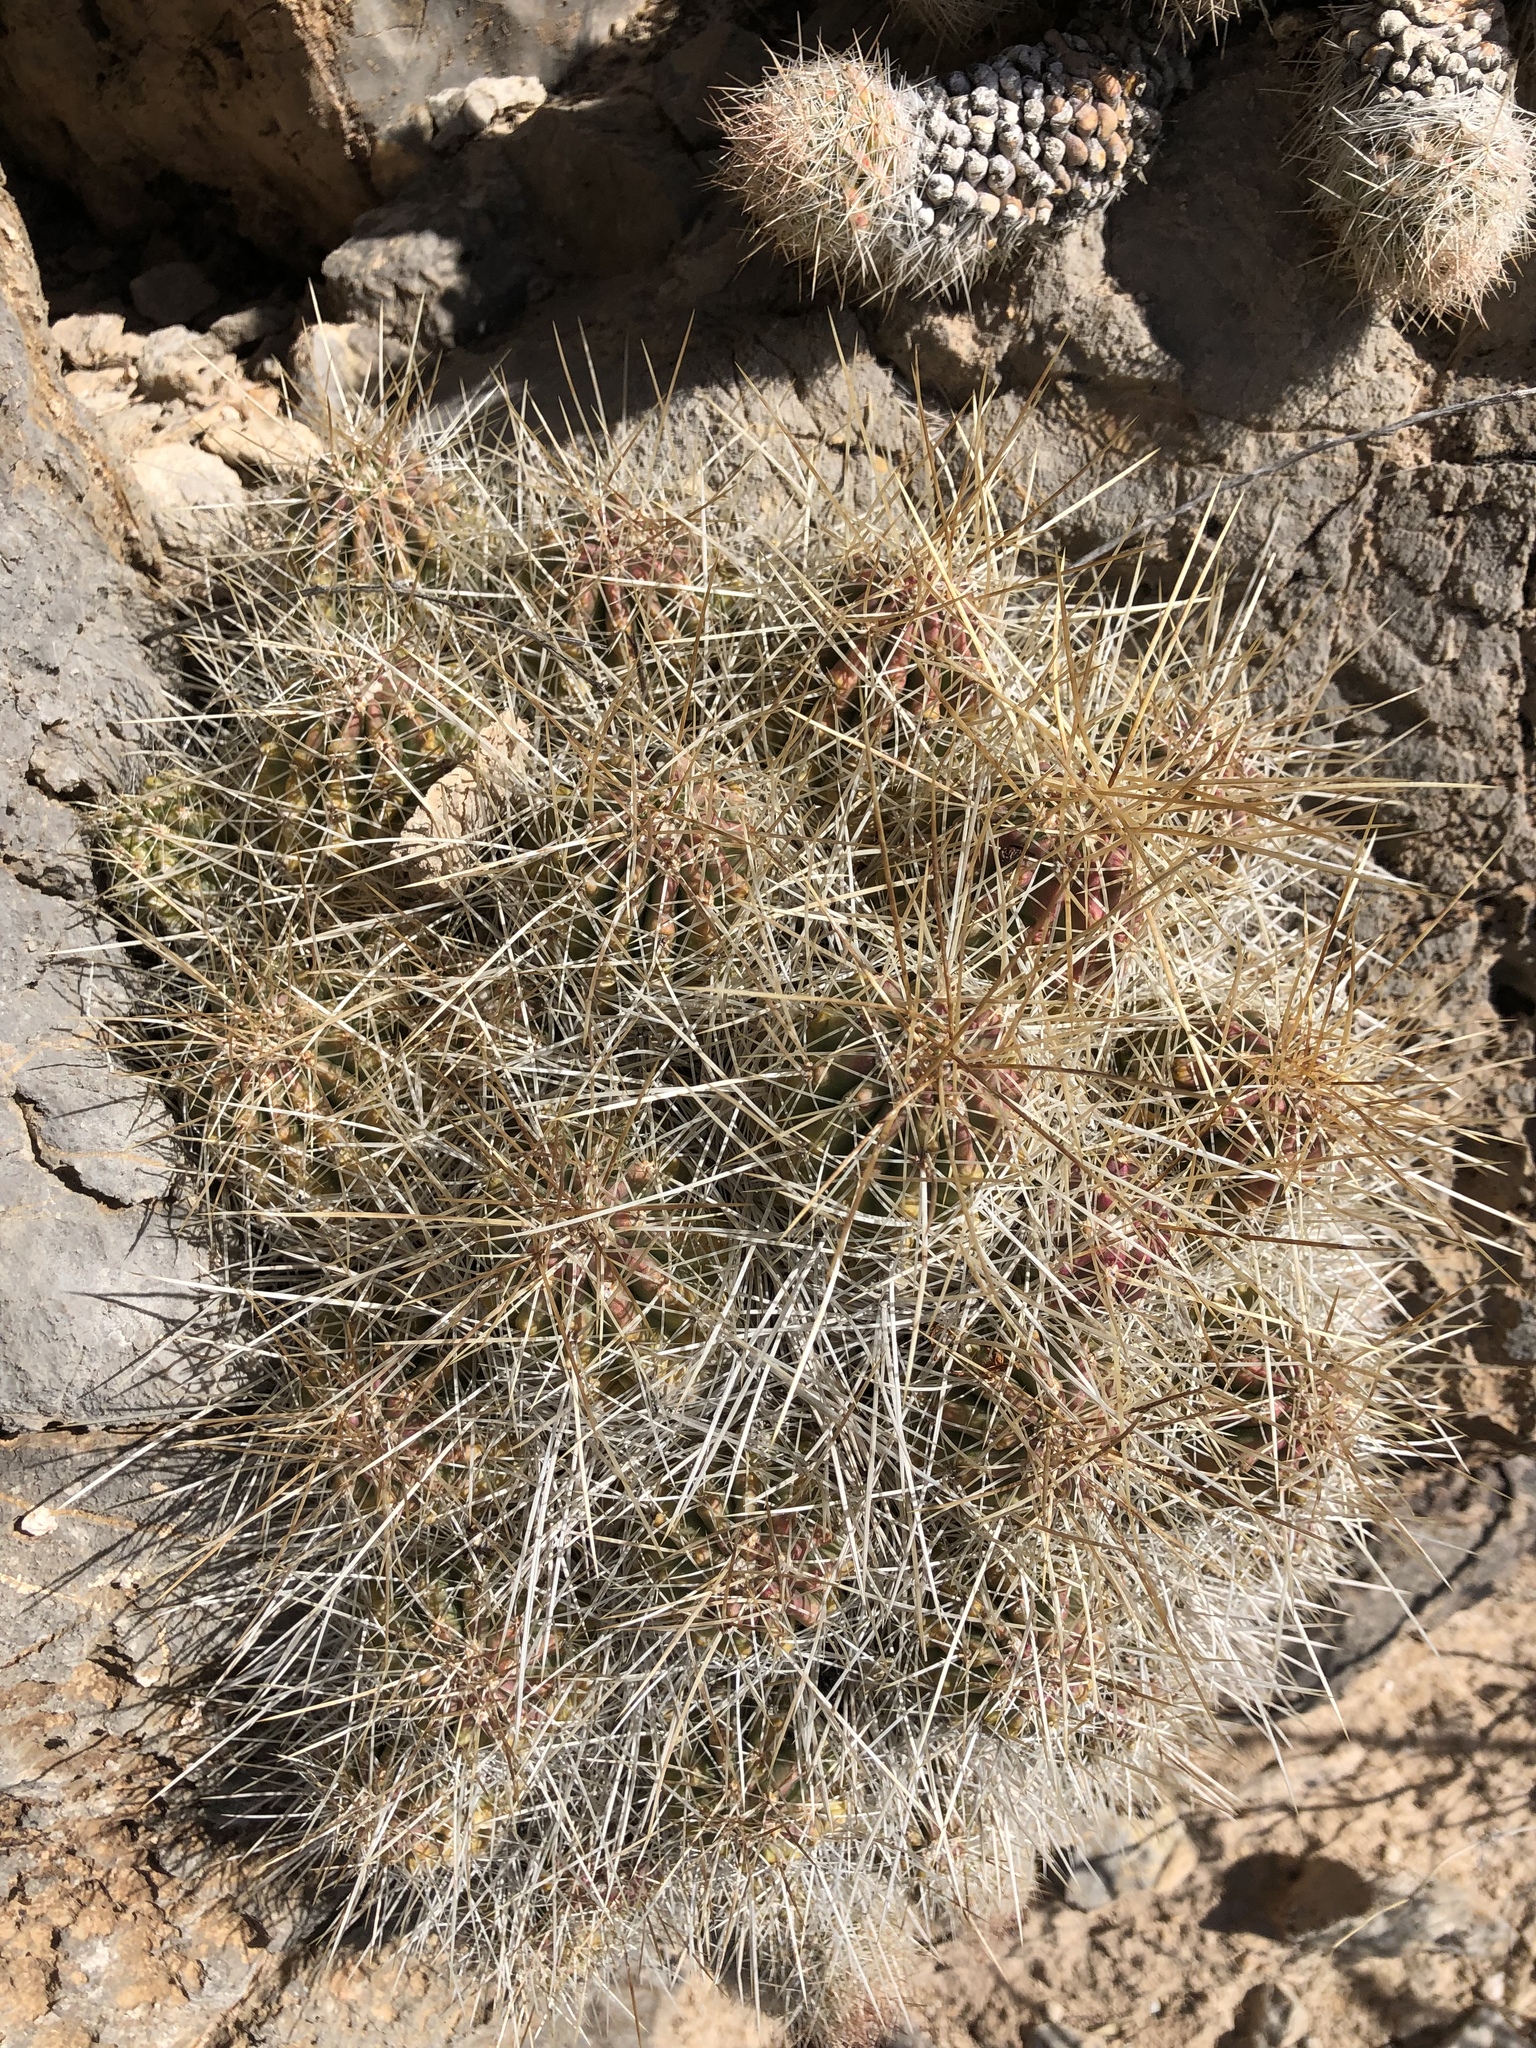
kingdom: Plantae
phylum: Tracheophyta
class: Magnoliopsida
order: Caryophyllales
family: Cactaceae
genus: Echinocereus
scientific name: Echinocereus stramineus
